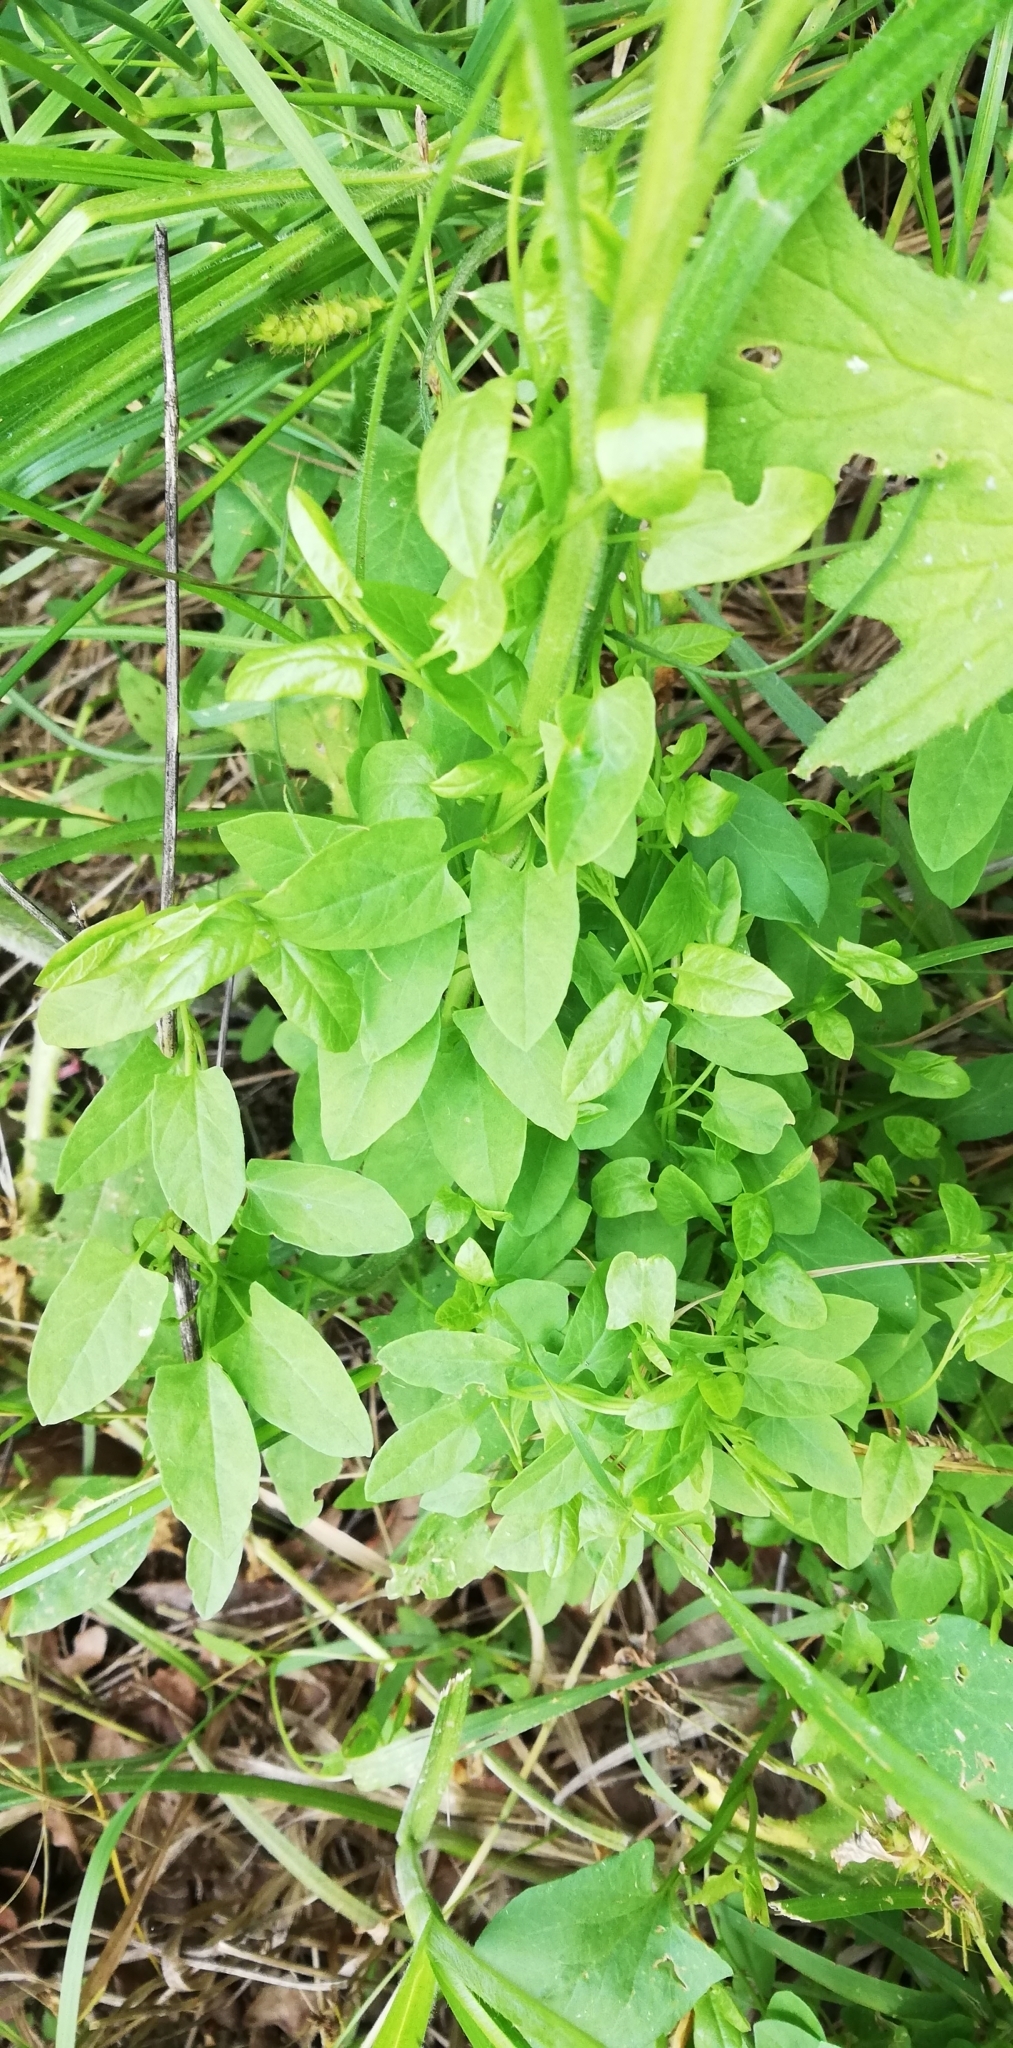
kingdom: Plantae
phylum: Tracheophyta
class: Magnoliopsida
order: Solanales
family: Convolvulaceae
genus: Convolvulus
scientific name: Convolvulus arvensis
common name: Field bindweed
